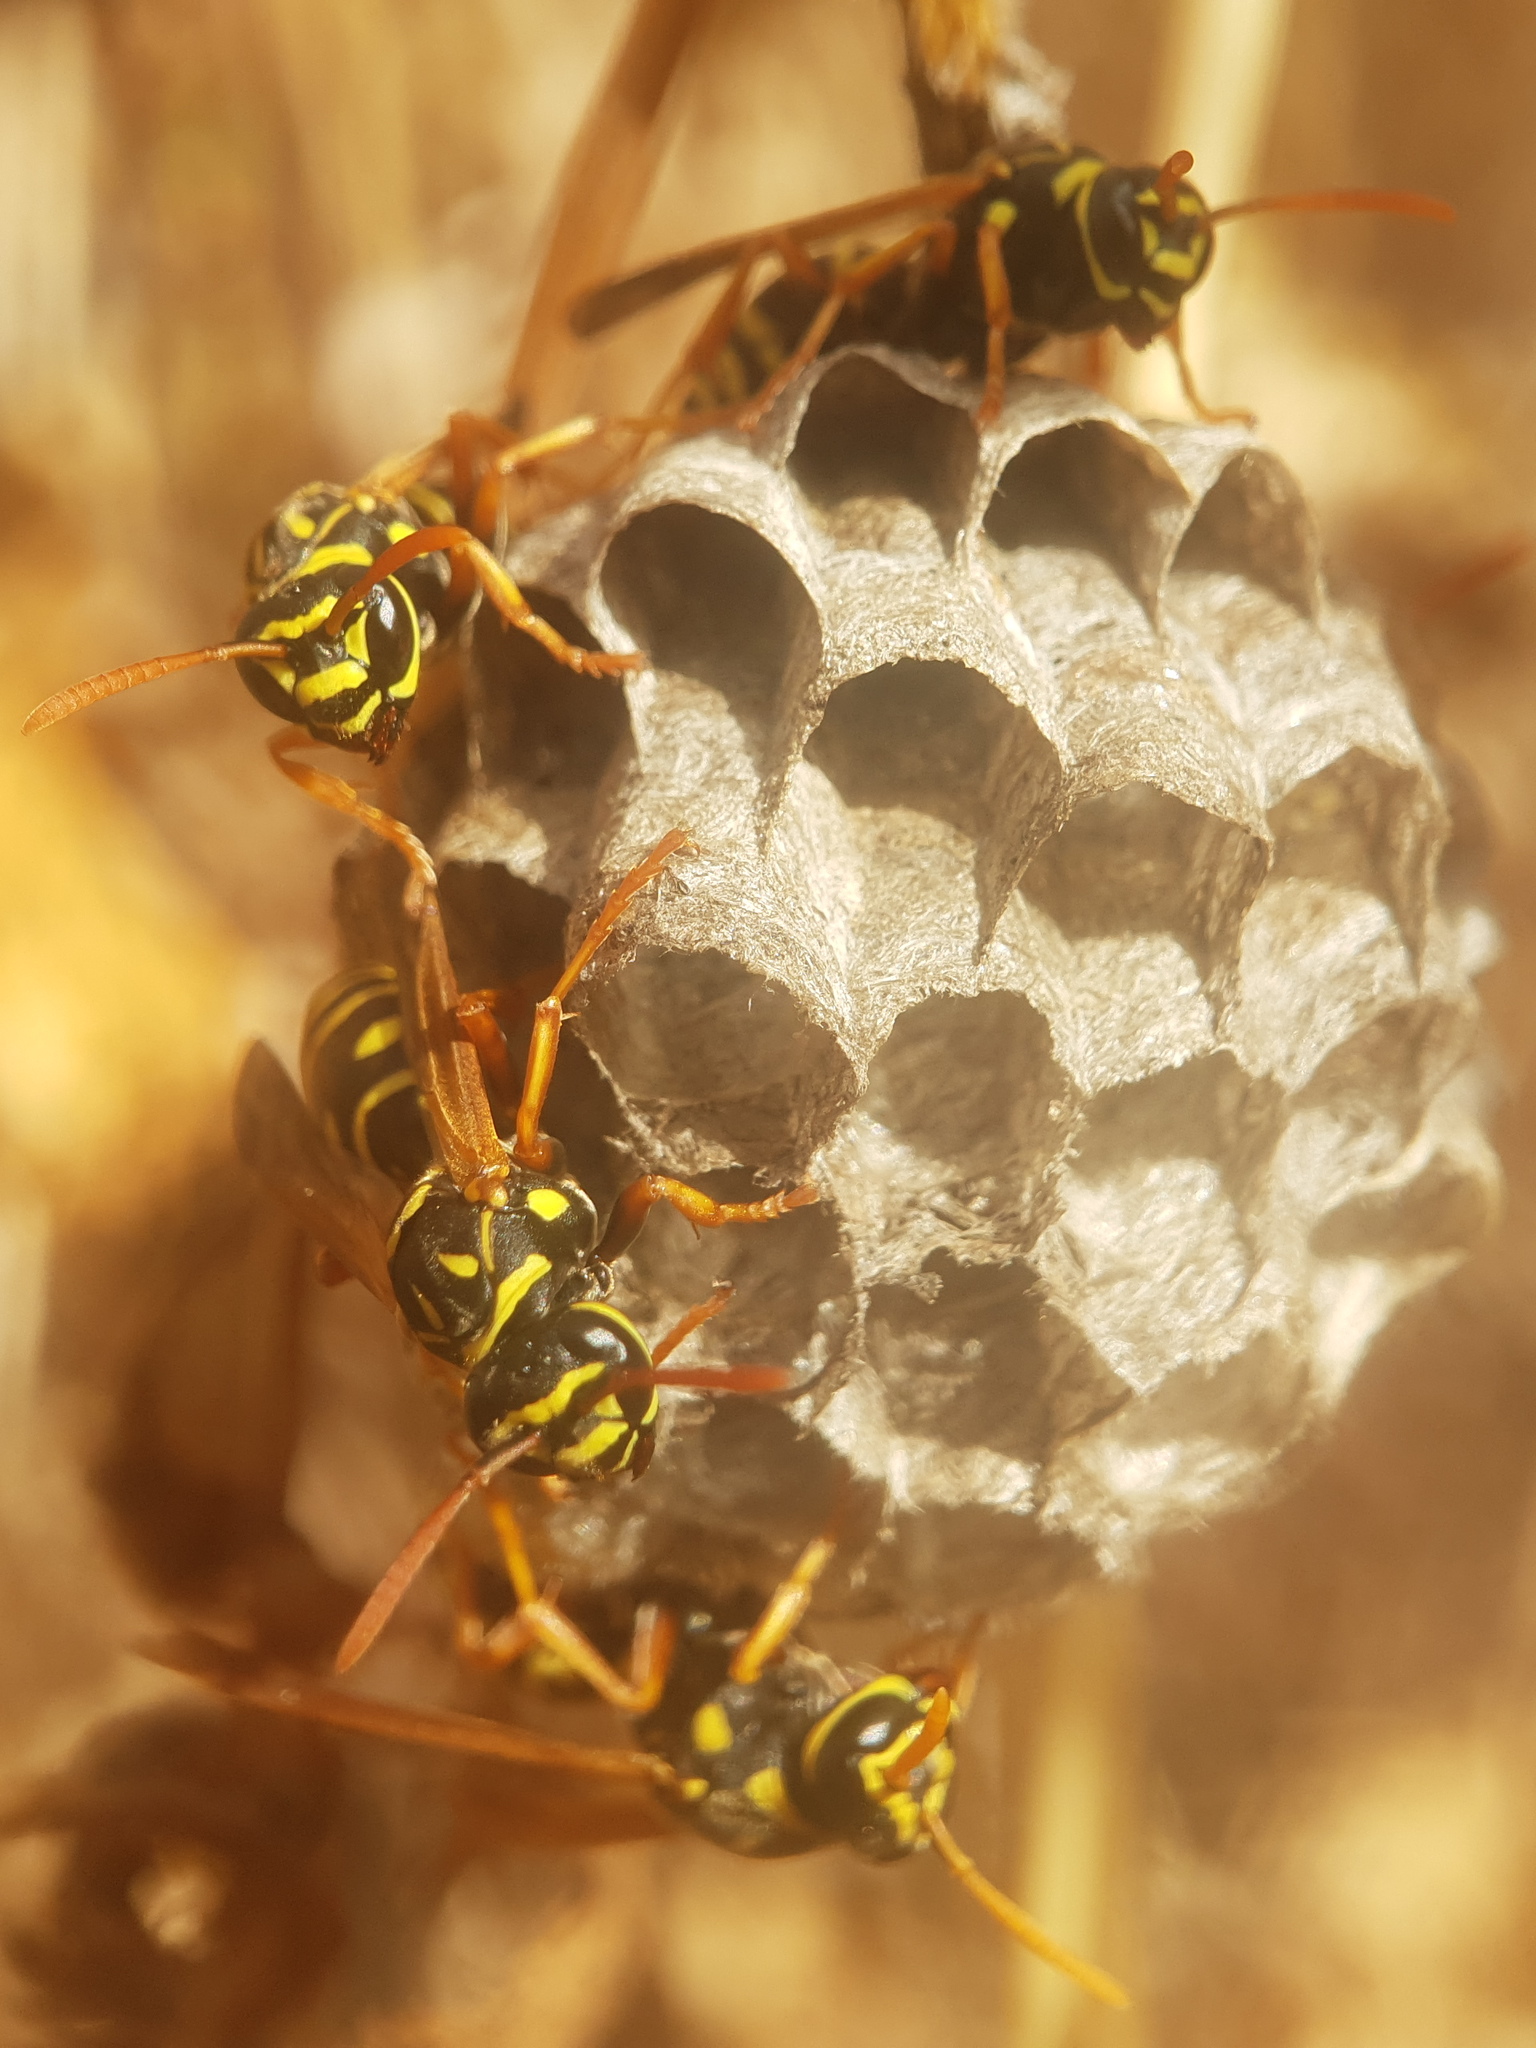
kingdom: Animalia
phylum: Arthropoda
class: Insecta
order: Hymenoptera
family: Eumenidae
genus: Polistes
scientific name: Polistes dominula
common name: Paper wasp
